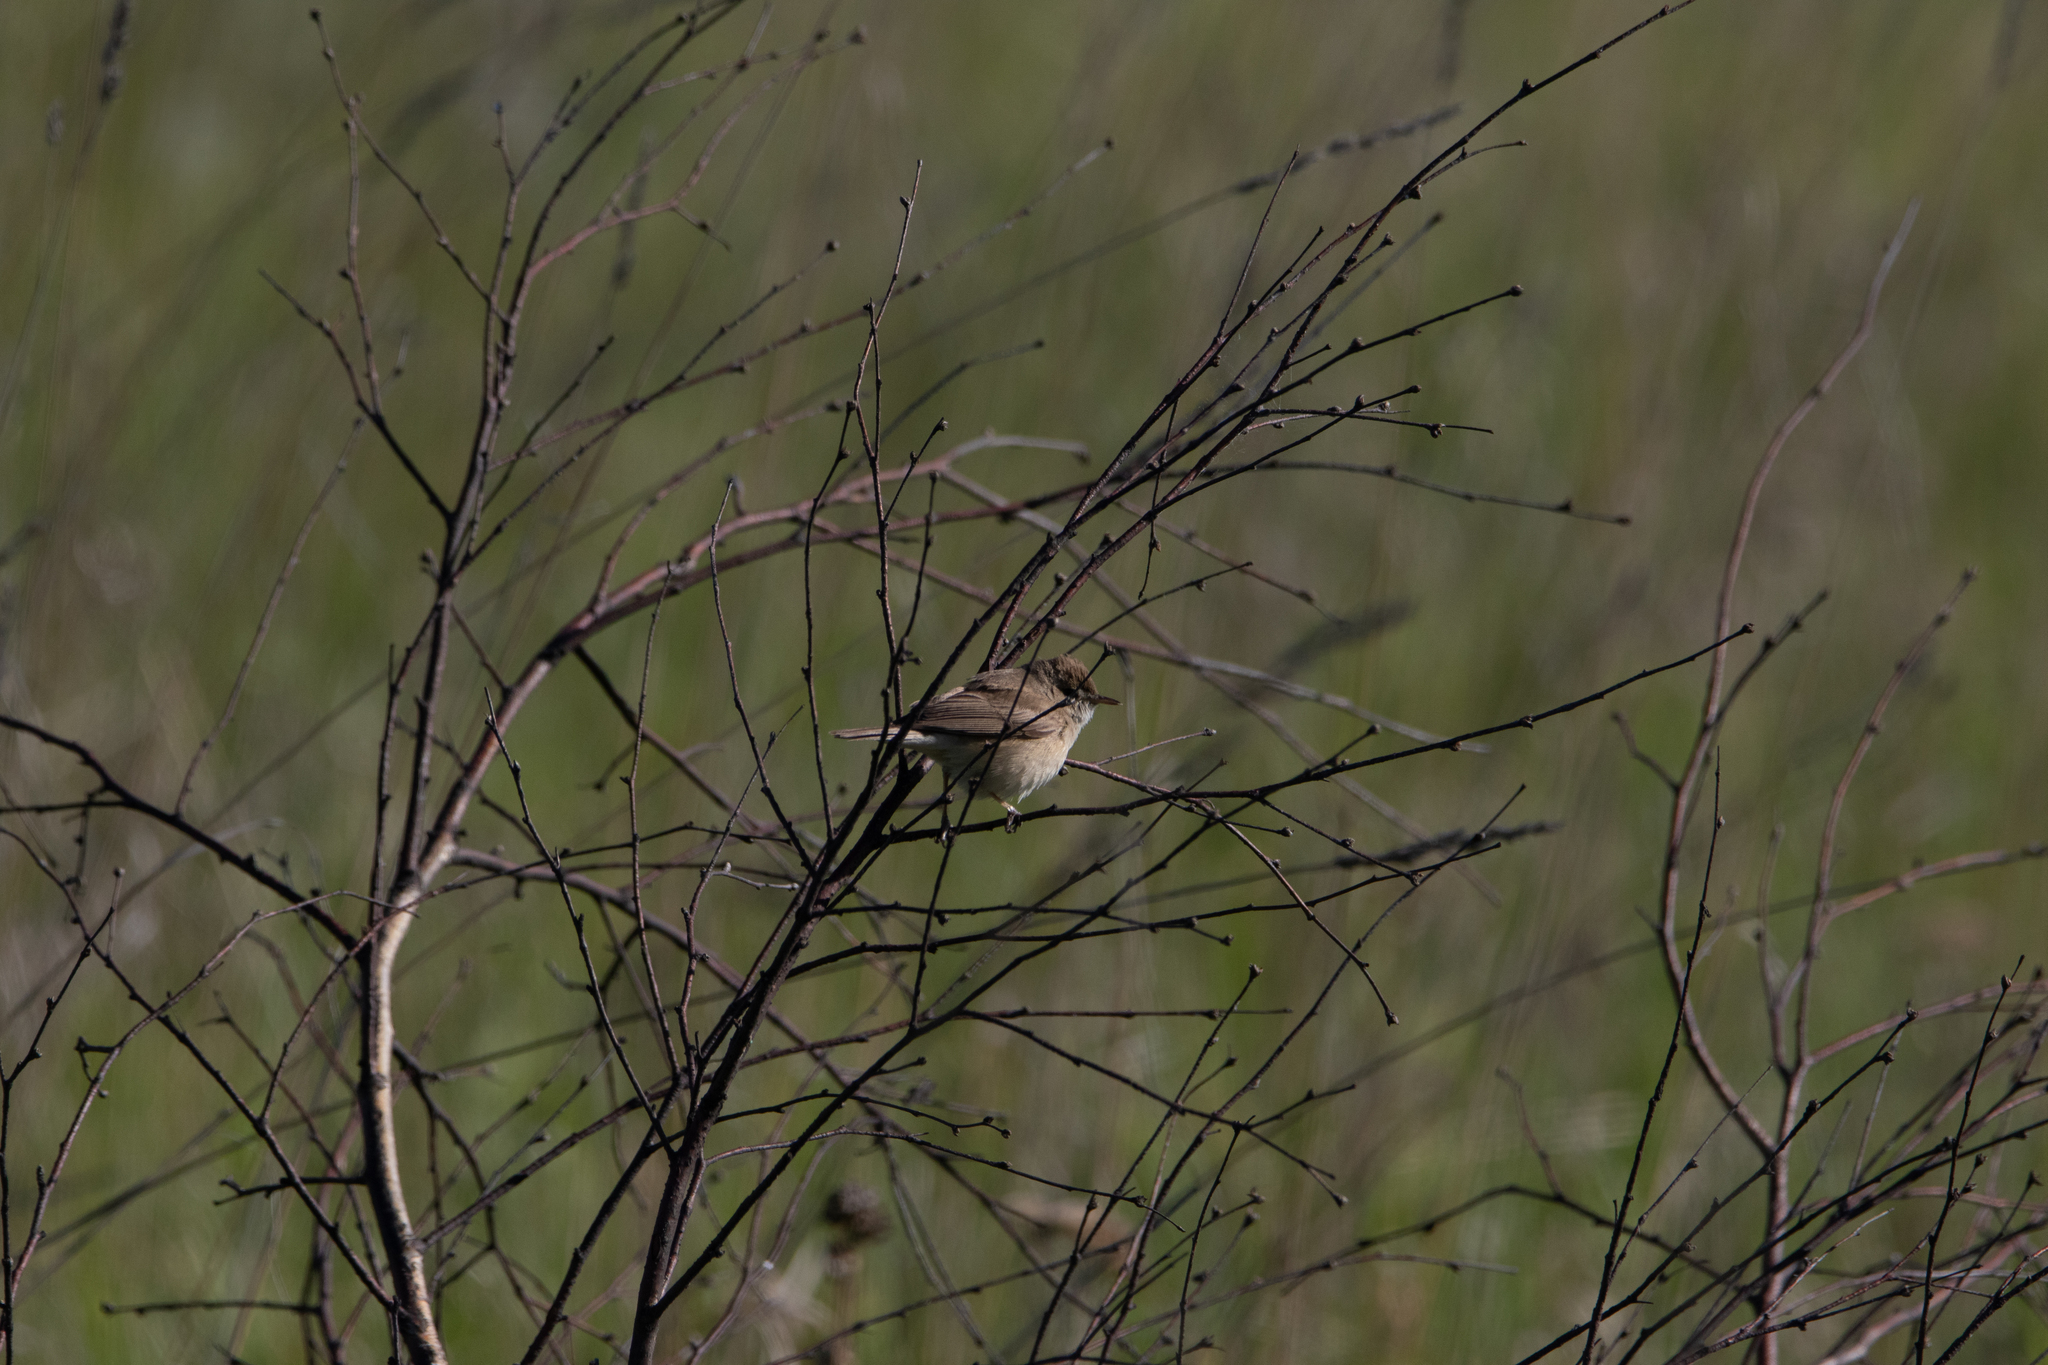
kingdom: Animalia
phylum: Chordata
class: Aves
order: Passeriformes
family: Acrocephalidae
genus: Iduna
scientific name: Iduna caligata
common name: Booted warbler
